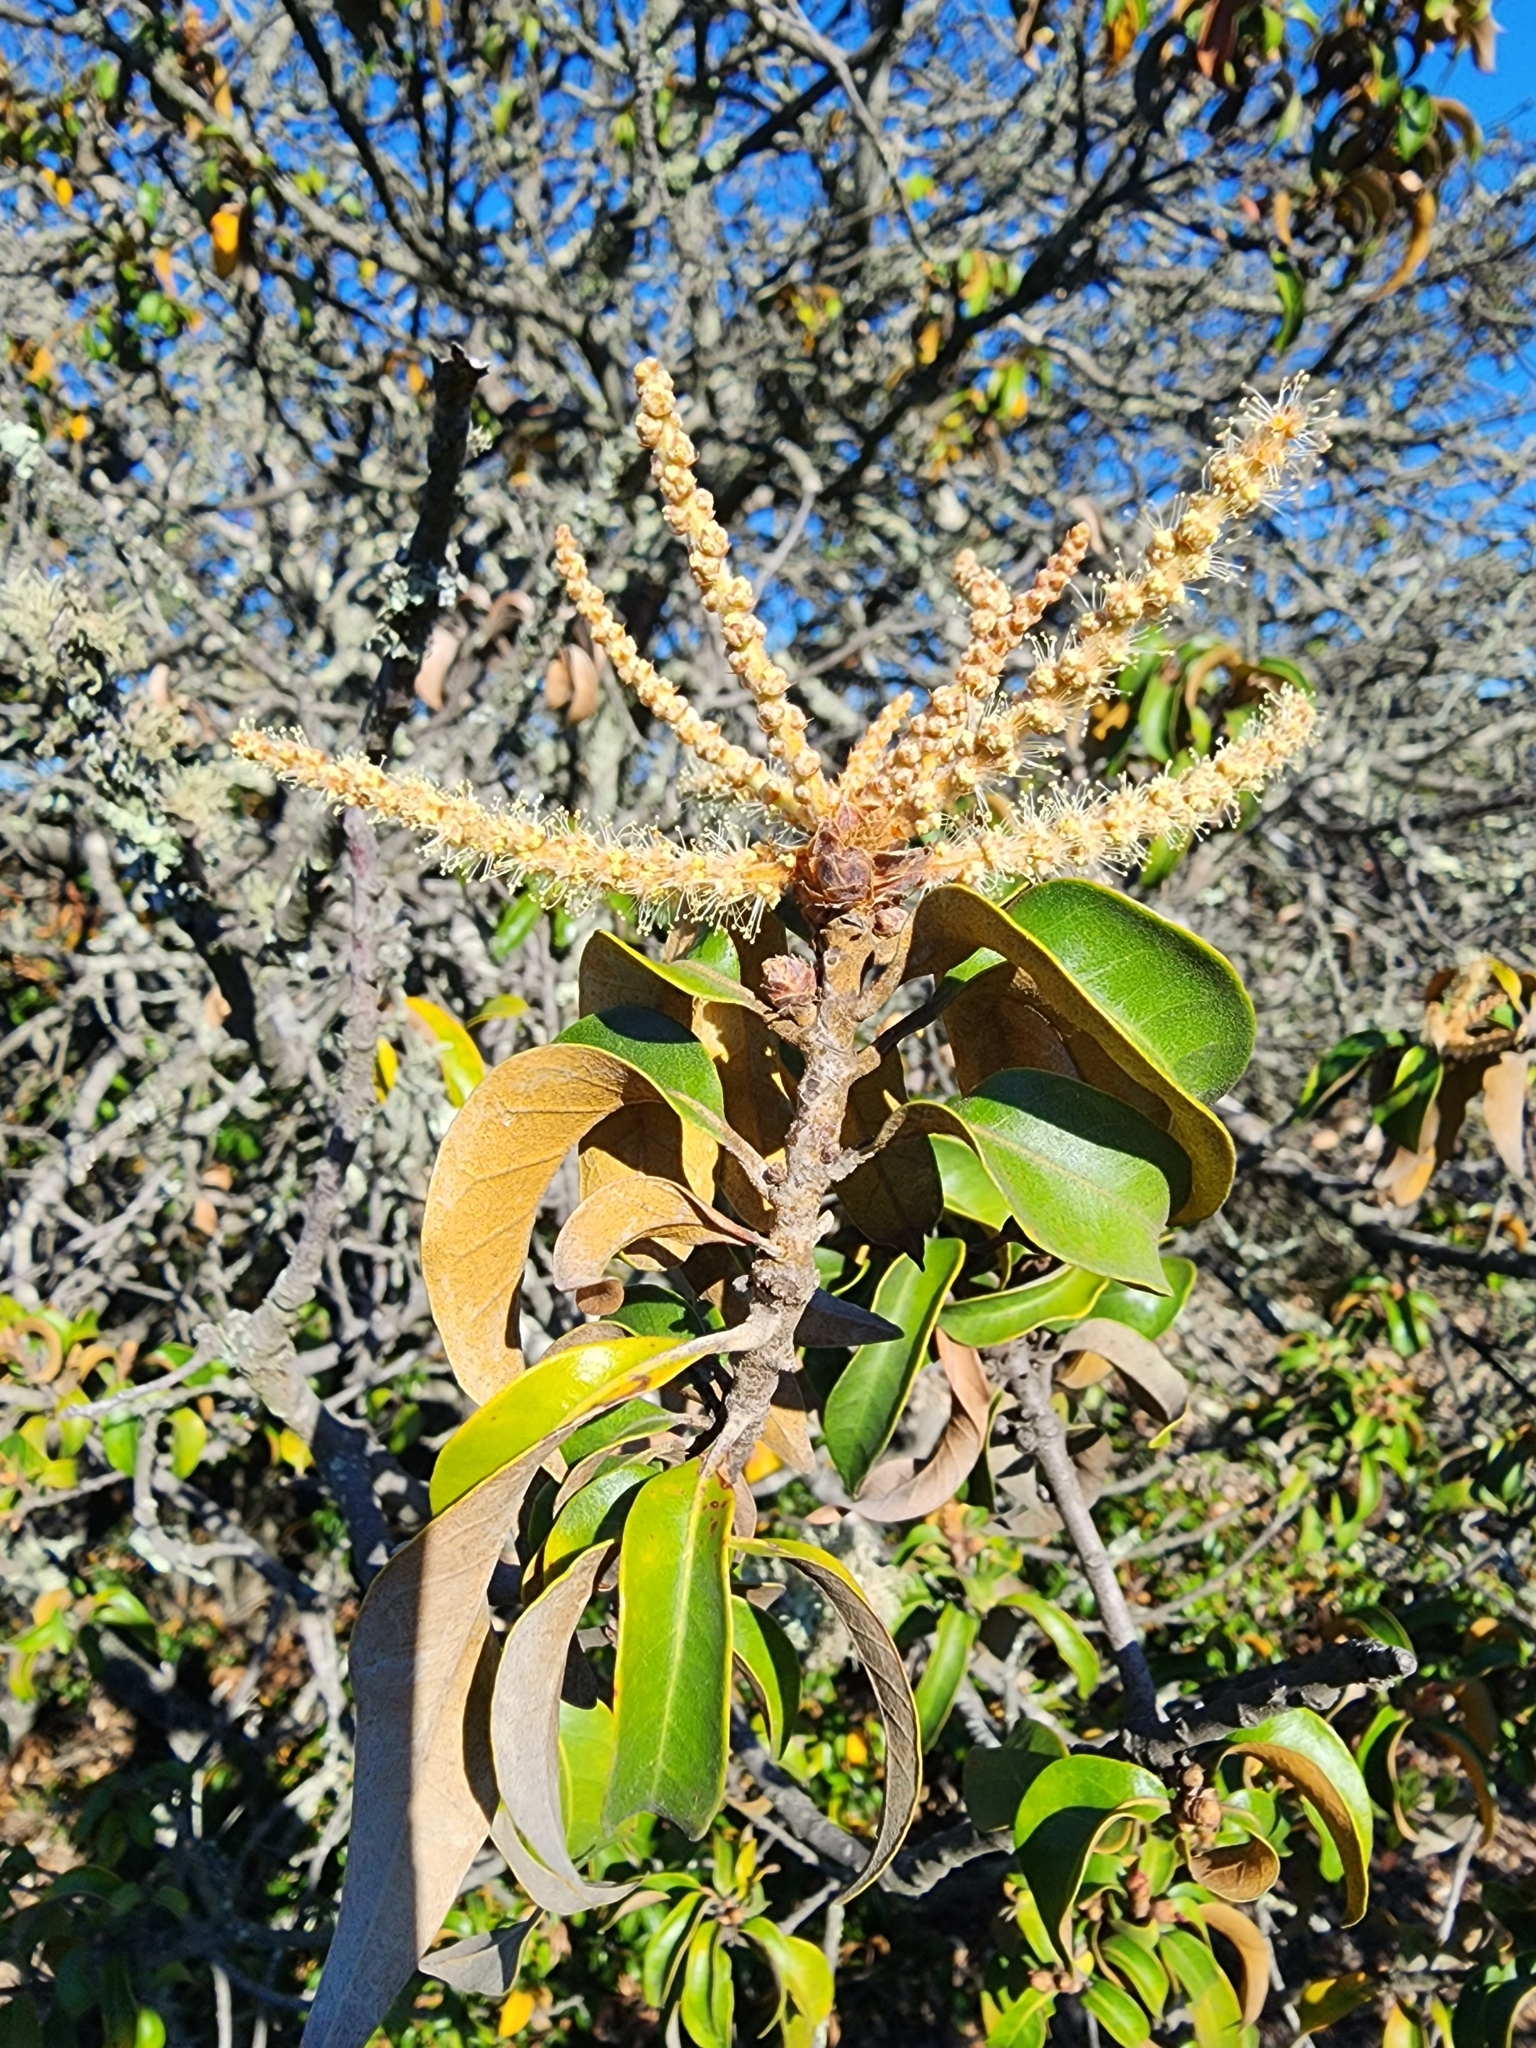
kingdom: Plantae
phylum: Tracheophyta
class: Magnoliopsida
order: Fagales
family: Fagaceae
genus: Chrysolepis
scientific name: Chrysolepis chrysophylla
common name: Giant chinquapin
